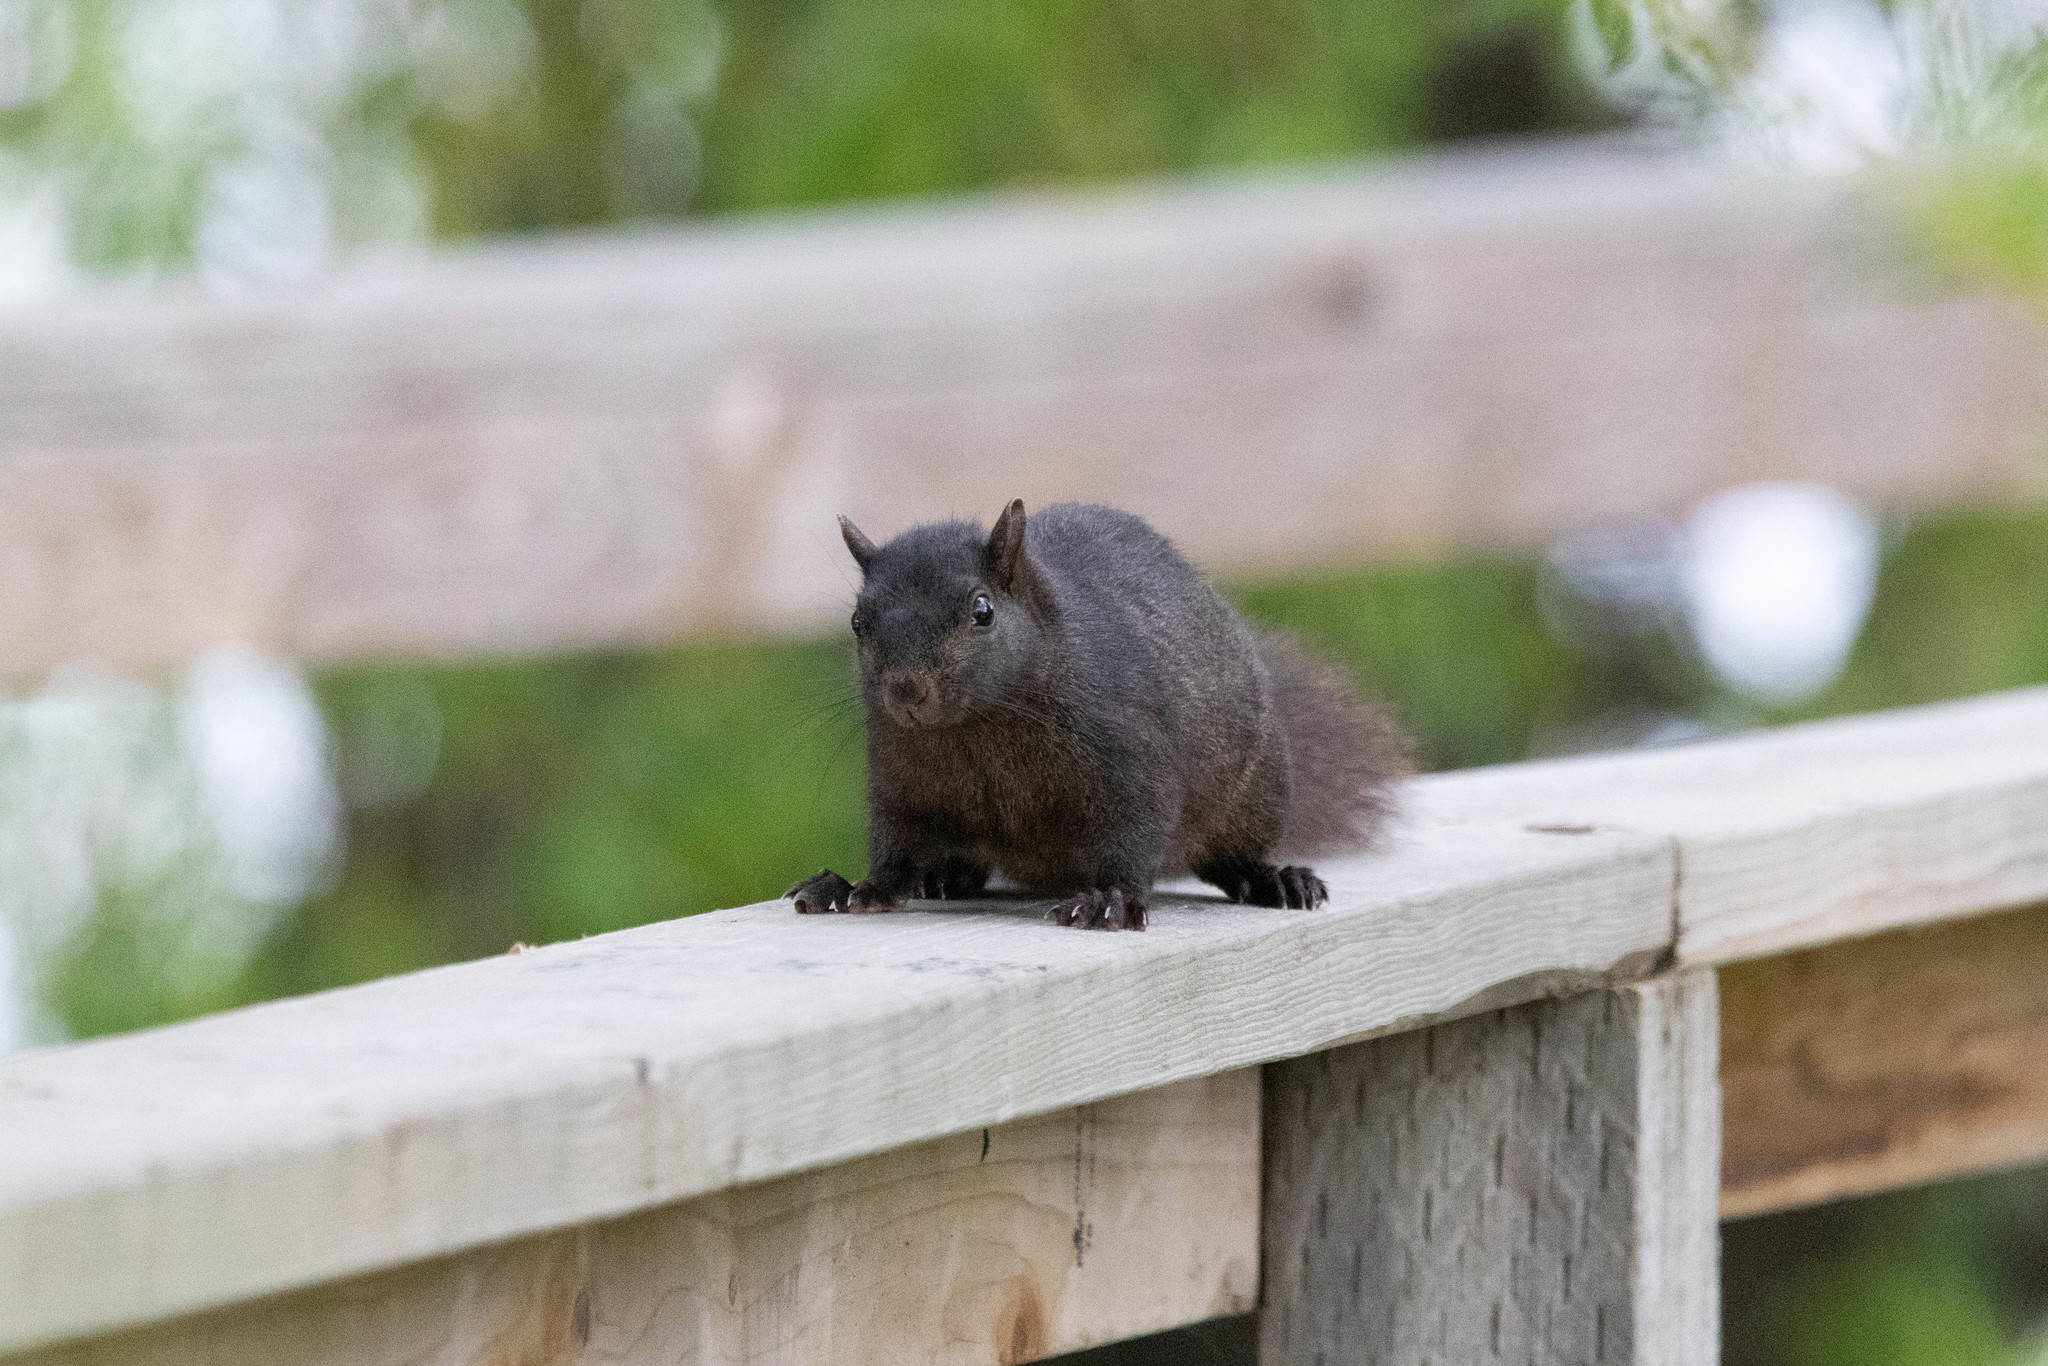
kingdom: Animalia
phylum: Chordata
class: Mammalia
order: Rodentia
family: Sciuridae
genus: Sciurus
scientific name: Sciurus carolinensis
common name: Eastern gray squirrel
